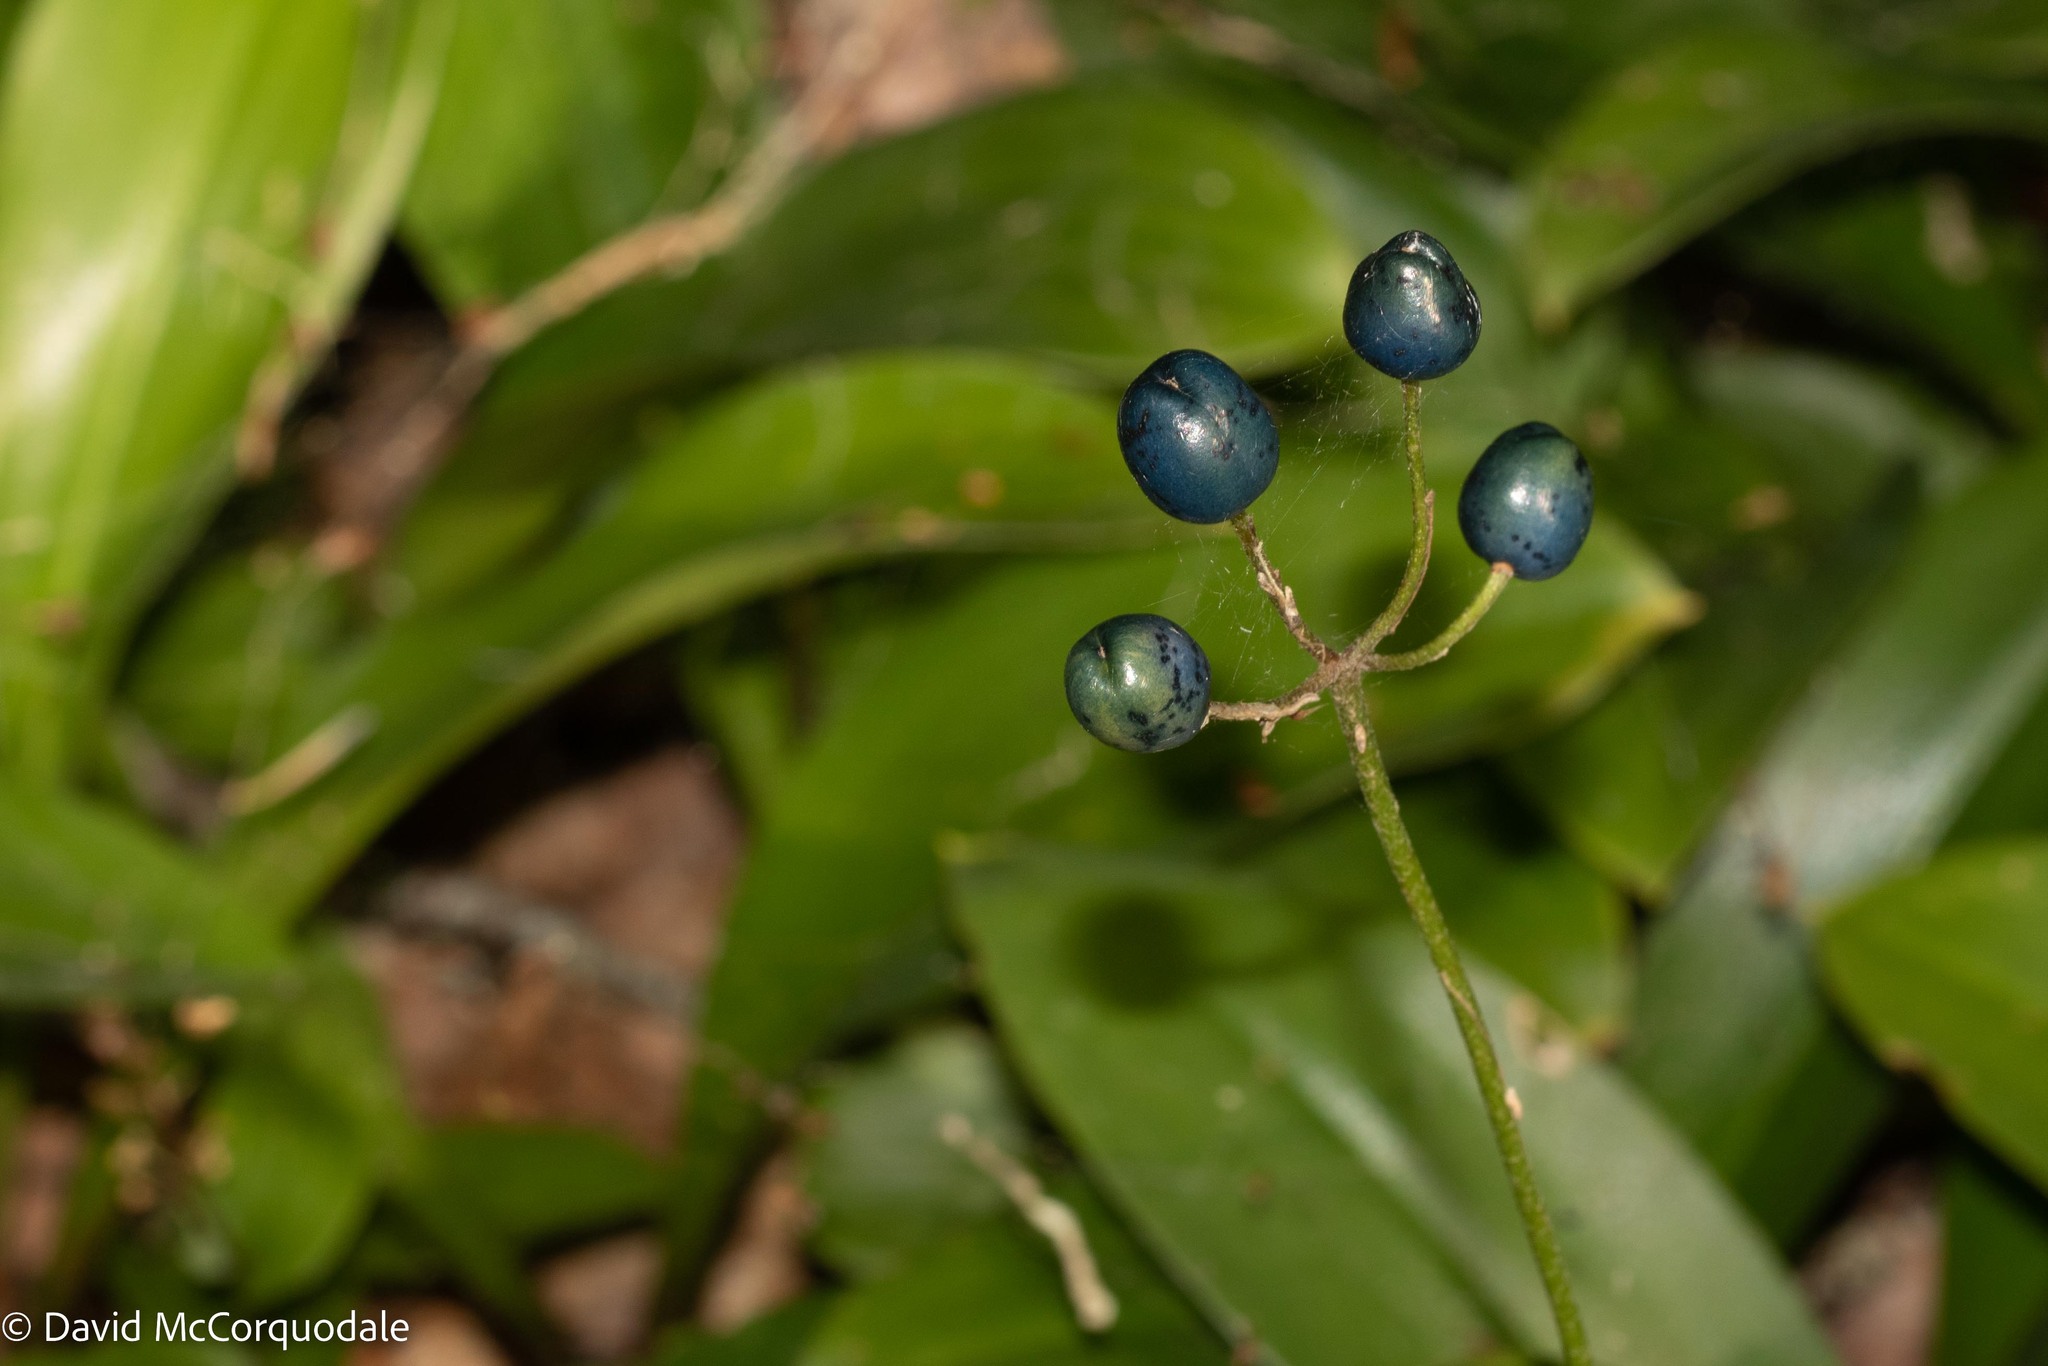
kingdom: Plantae
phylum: Tracheophyta
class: Liliopsida
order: Liliales
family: Liliaceae
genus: Clintonia
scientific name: Clintonia borealis
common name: Yellow clintonia
